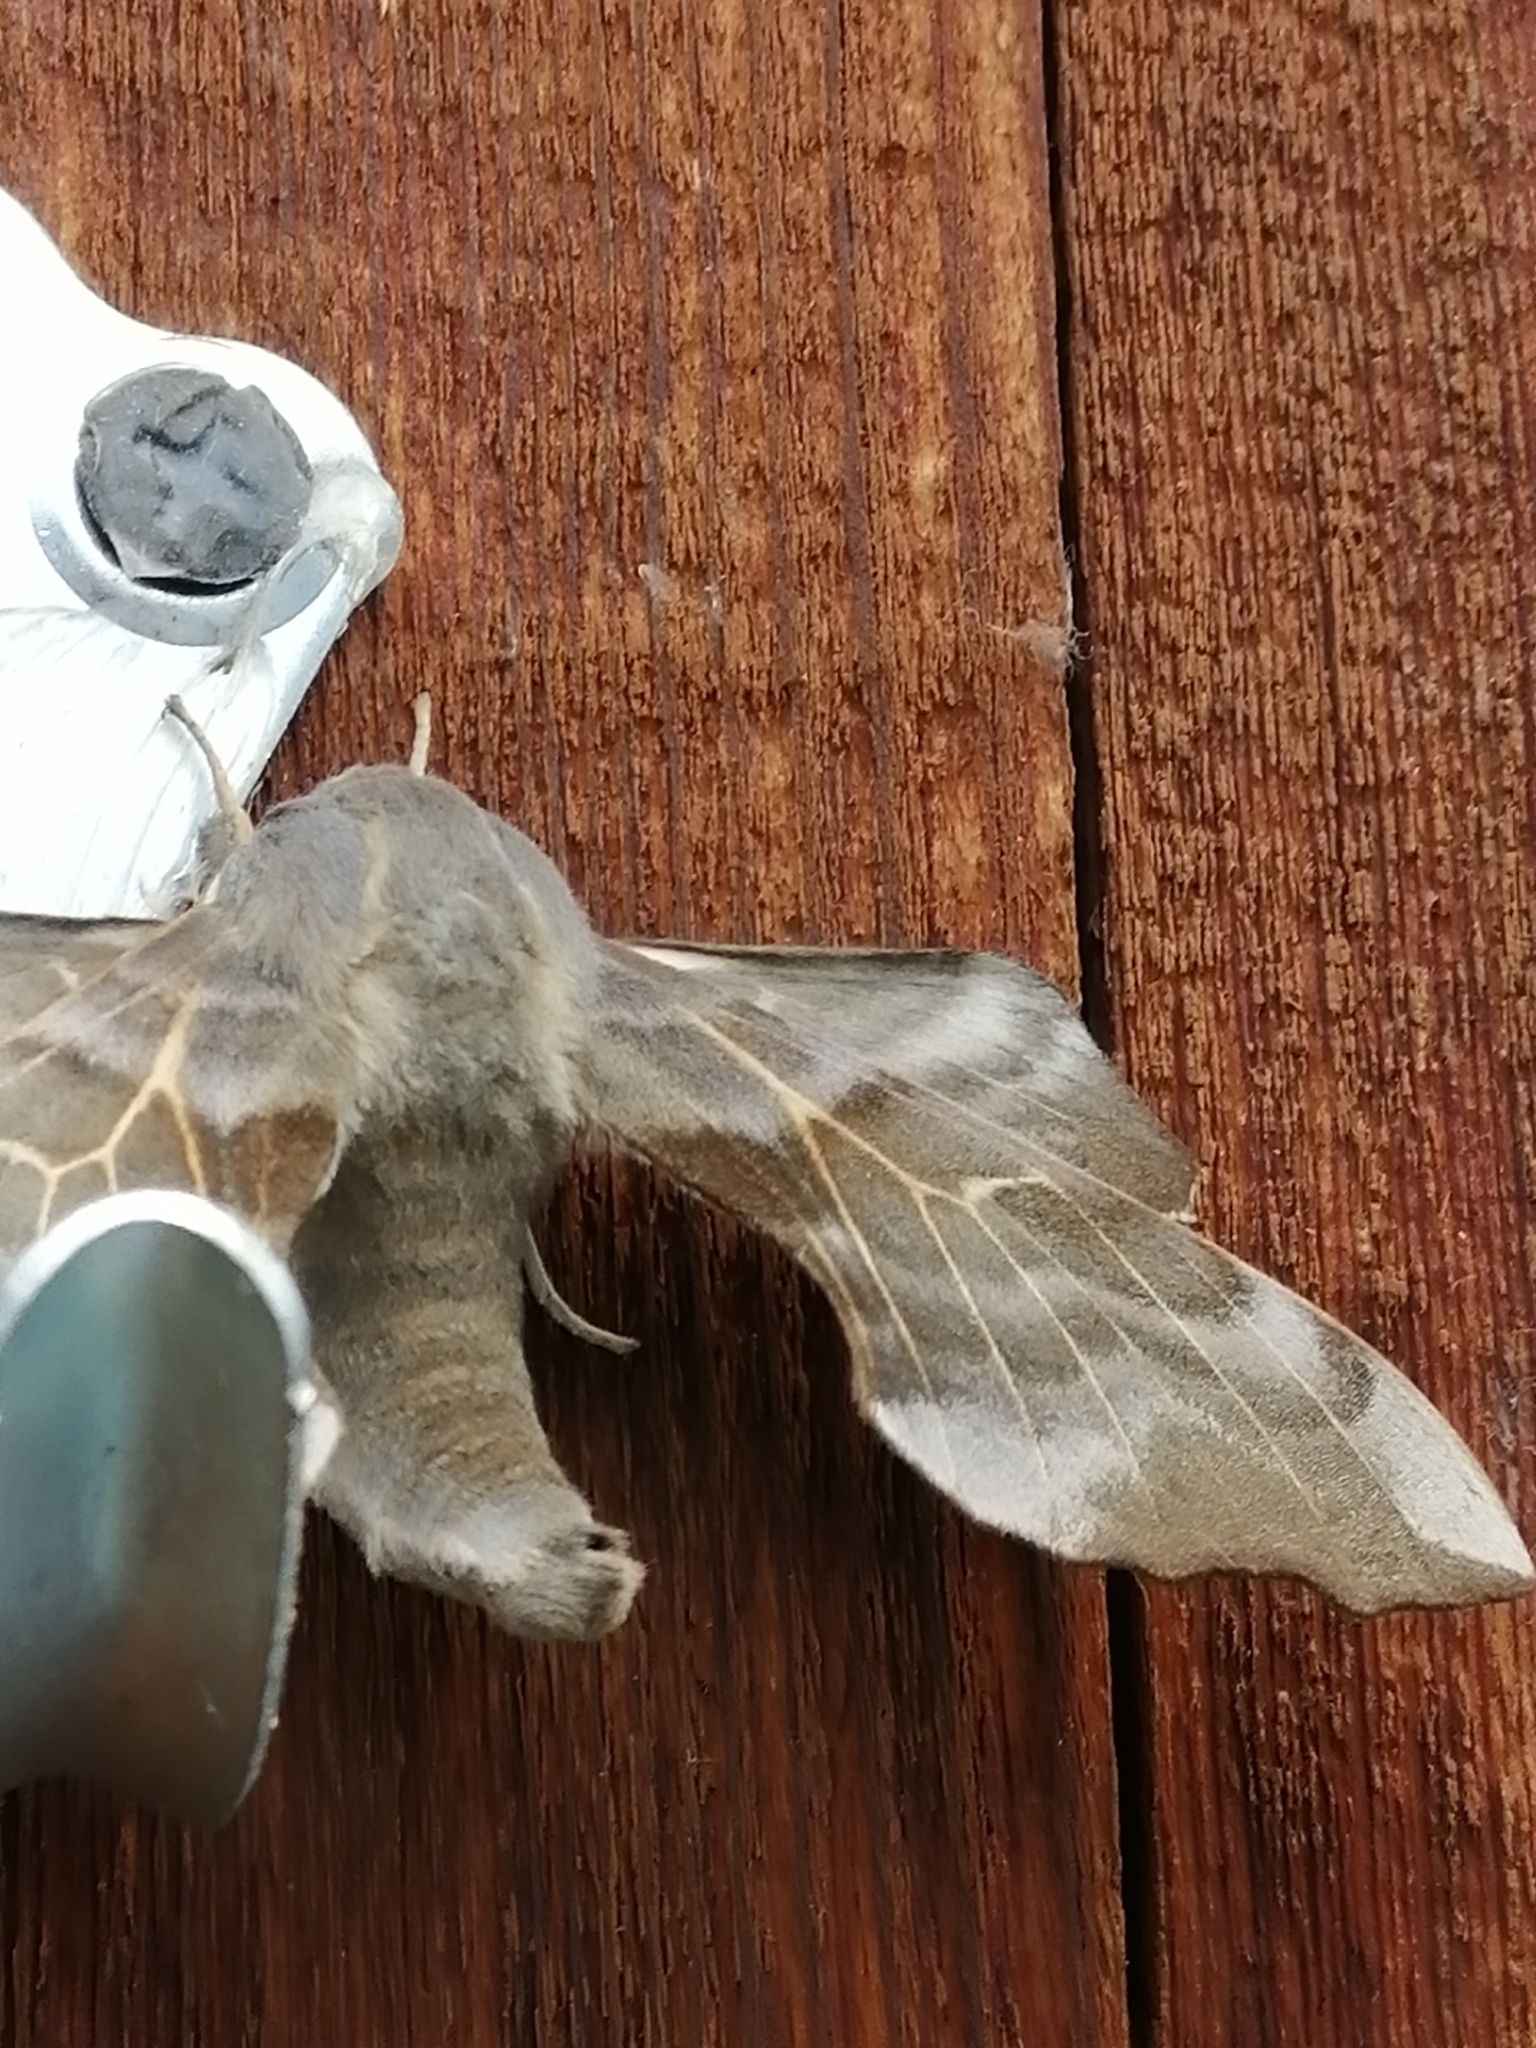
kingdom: Animalia
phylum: Arthropoda
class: Insecta
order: Lepidoptera
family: Sphingidae
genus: Laothoe
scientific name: Laothoe amurensis
